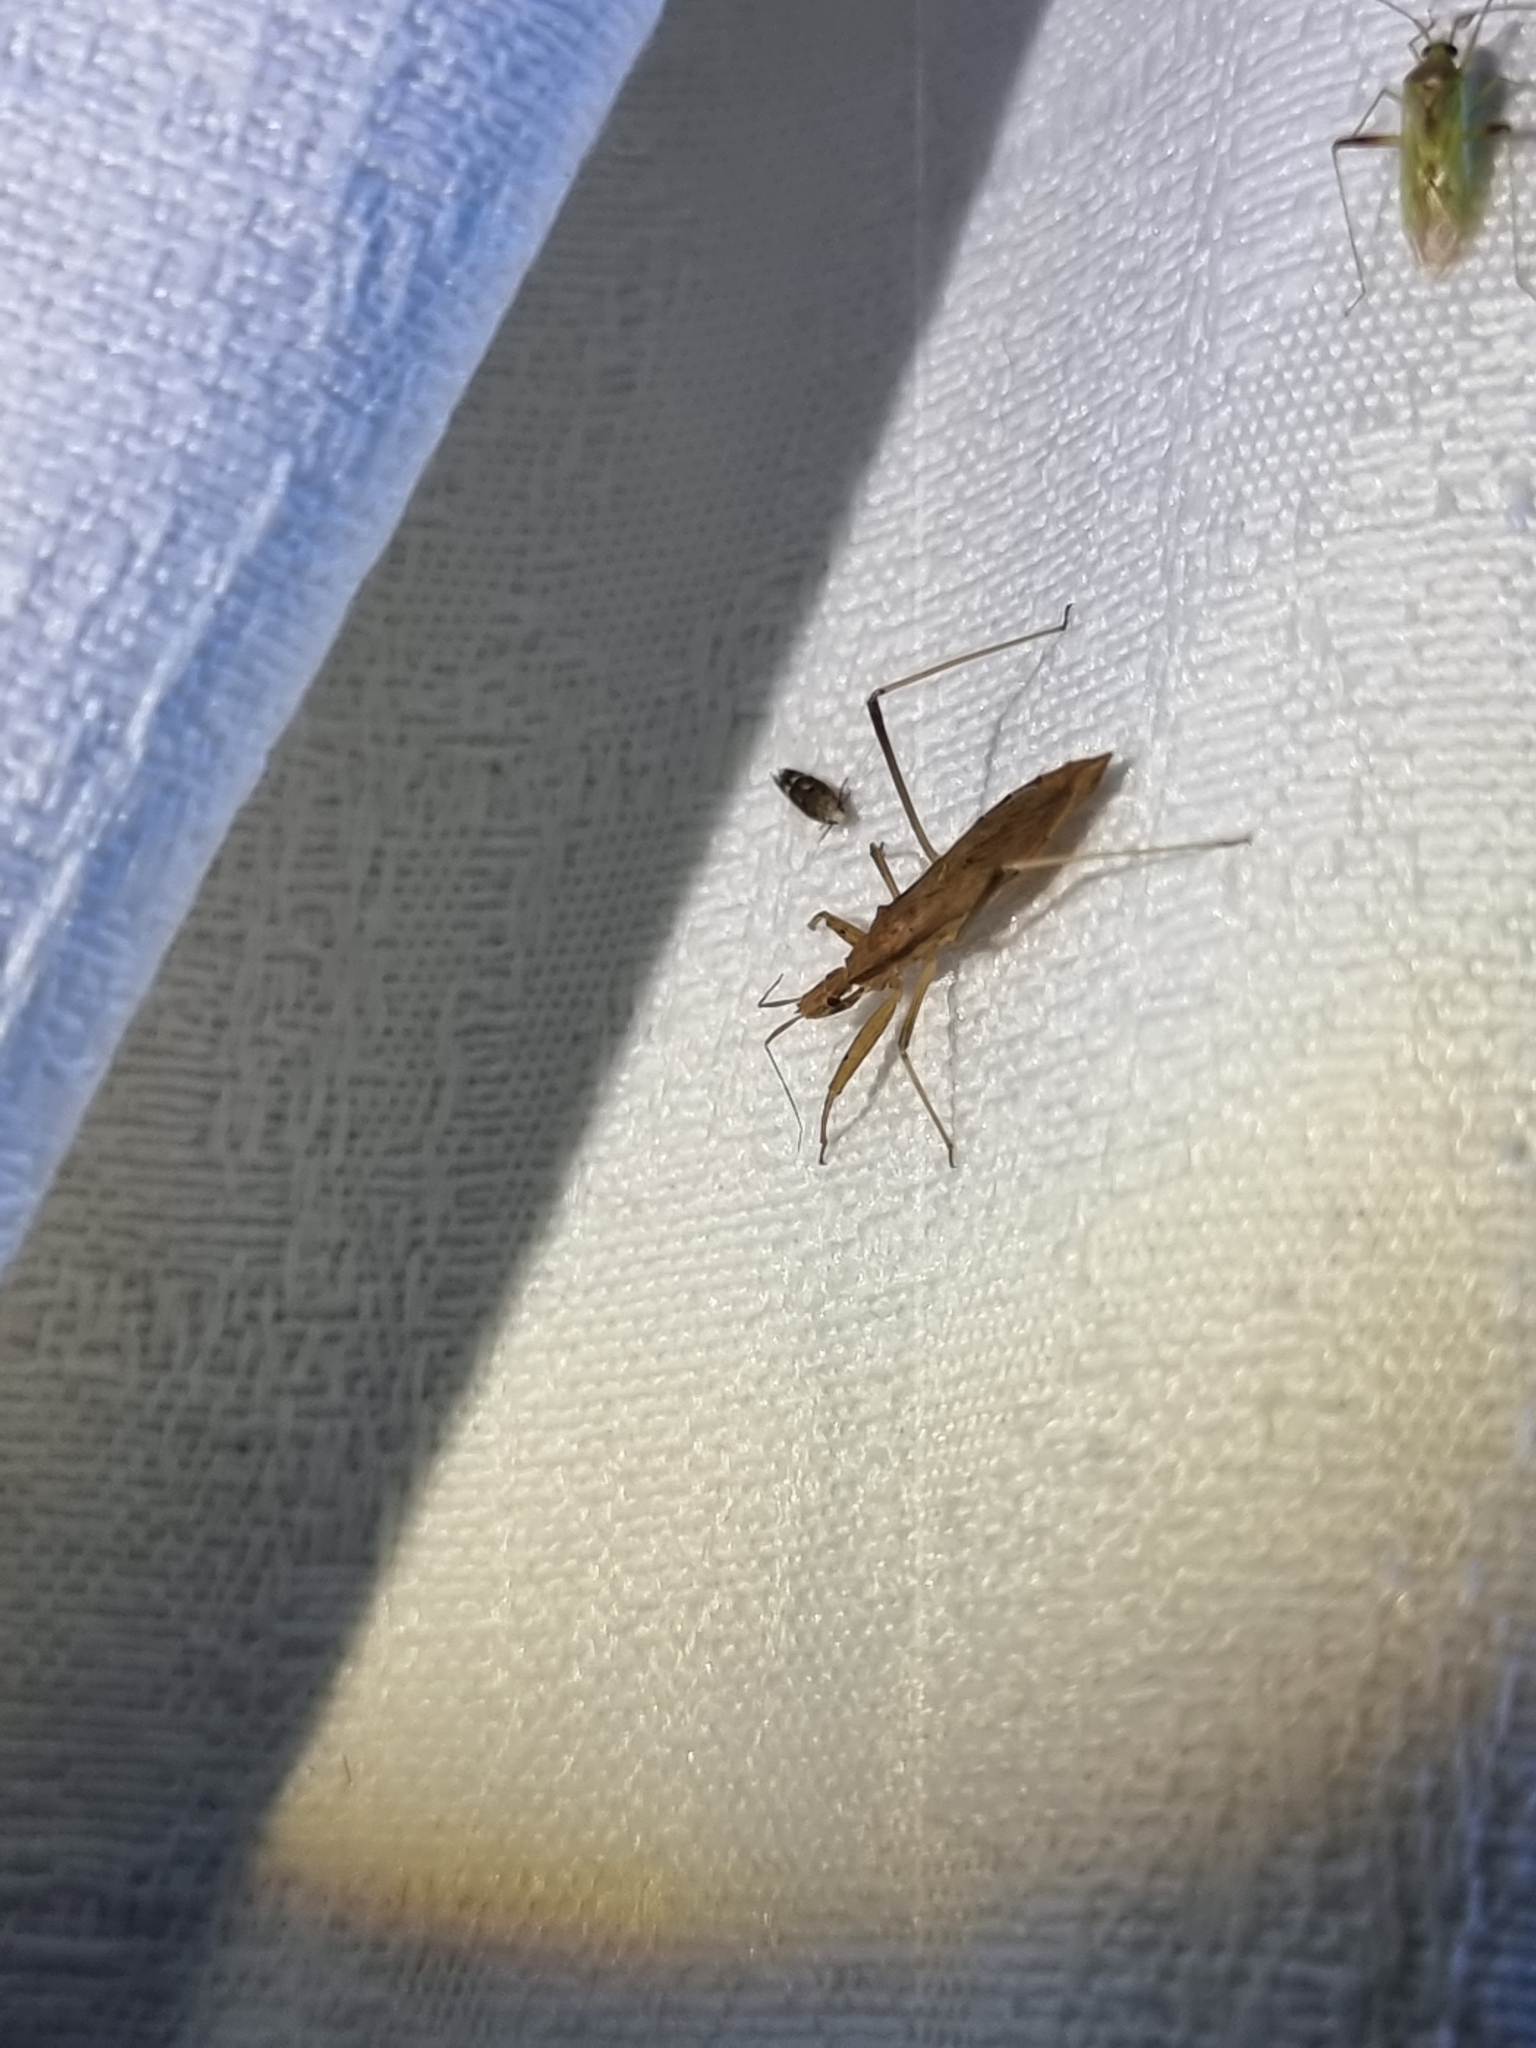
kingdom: Animalia
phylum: Arthropoda
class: Insecta
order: Hemiptera
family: Reduviidae
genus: Sastrapada
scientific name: Sastrapada australica
